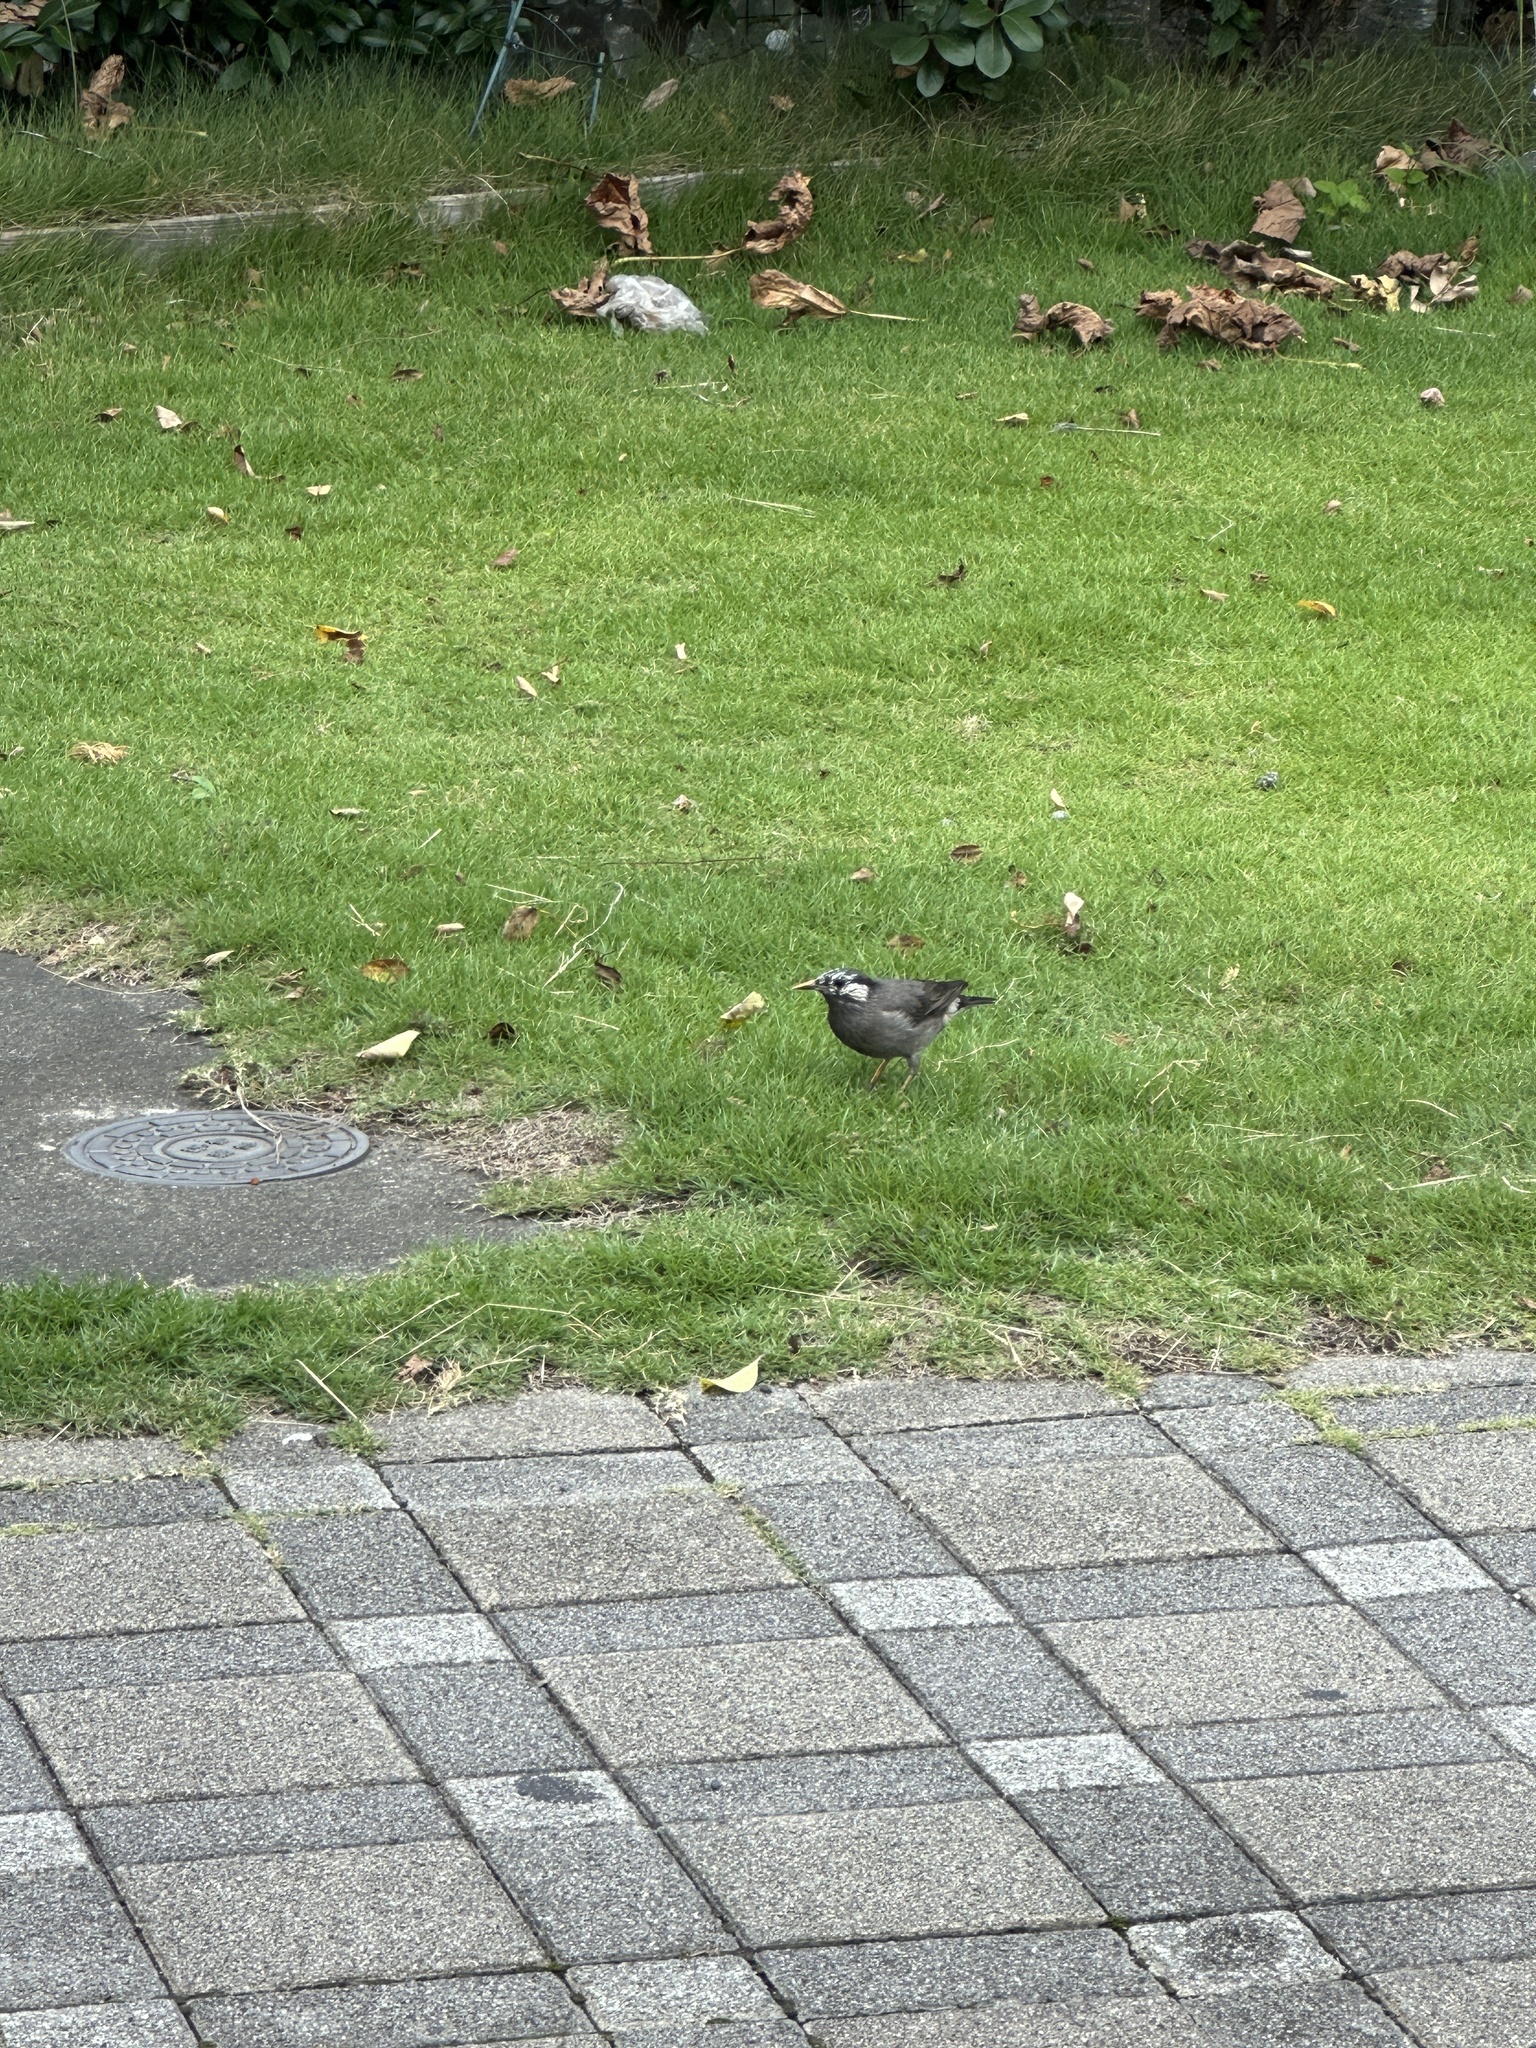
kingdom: Animalia
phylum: Chordata
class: Aves
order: Passeriformes
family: Sturnidae
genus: Spodiopsar
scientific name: Spodiopsar cineraceus
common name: White-cheeked starling
